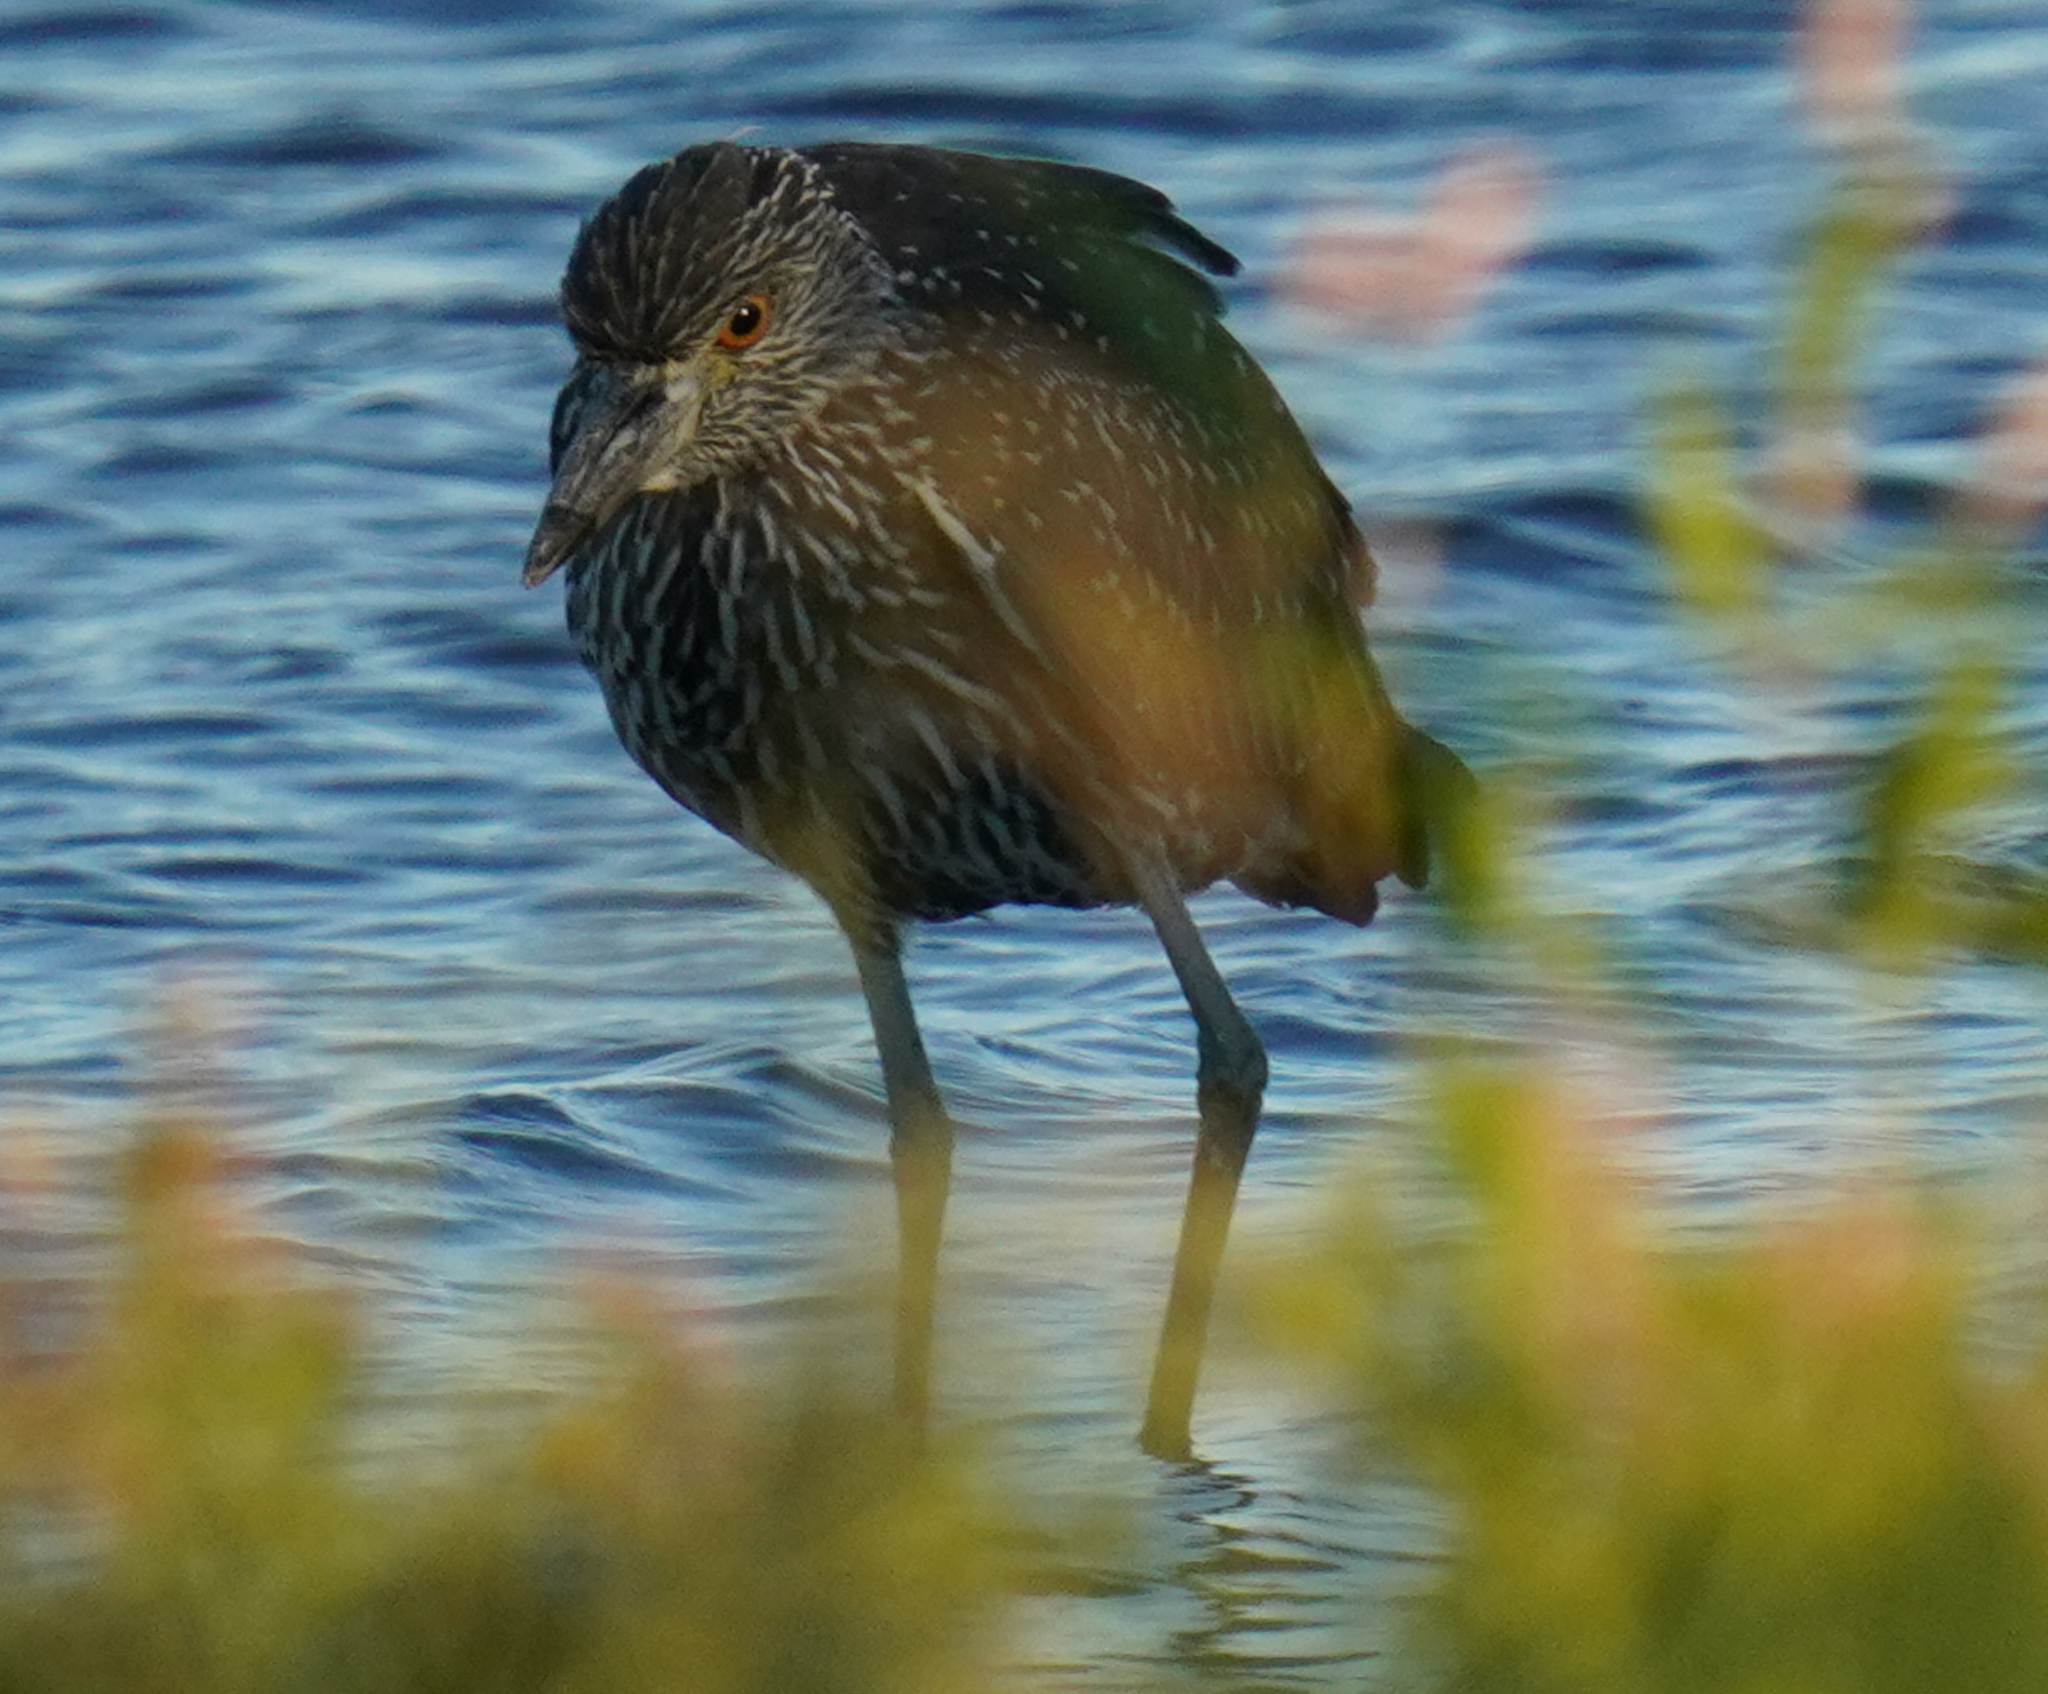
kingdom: Animalia
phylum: Chordata
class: Aves
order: Pelecaniformes
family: Ardeidae
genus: Nyctanassa
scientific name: Nyctanassa violacea
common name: Yellow-crowned night heron
